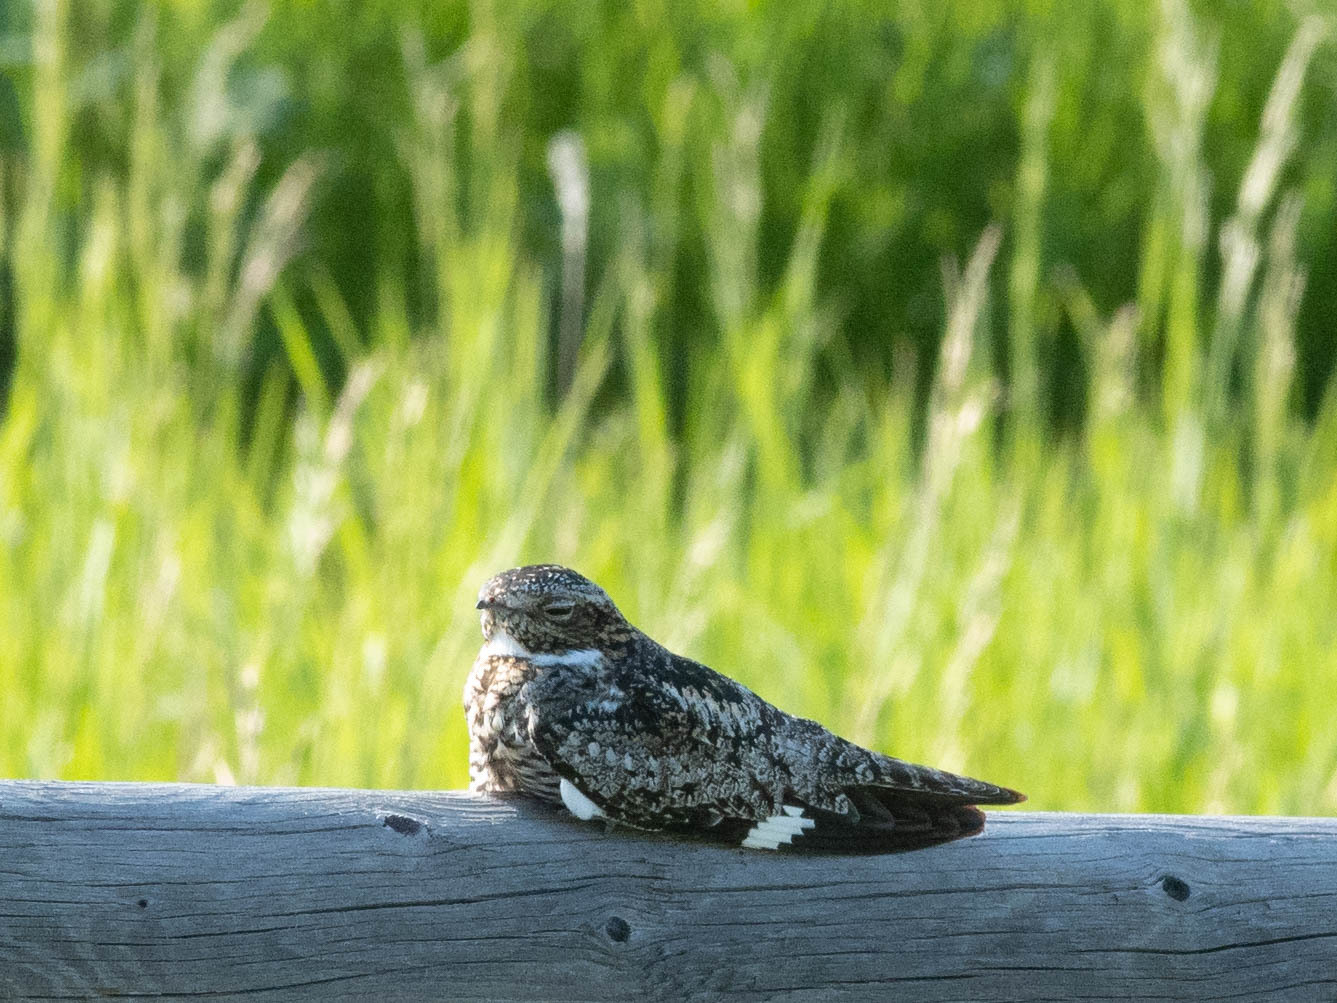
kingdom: Animalia
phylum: Chordata
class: Aves
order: Caprimulgiformes
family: Caprimulgidae
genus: Chordeiles
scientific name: Chordeiles minor
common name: Common nighthawk
